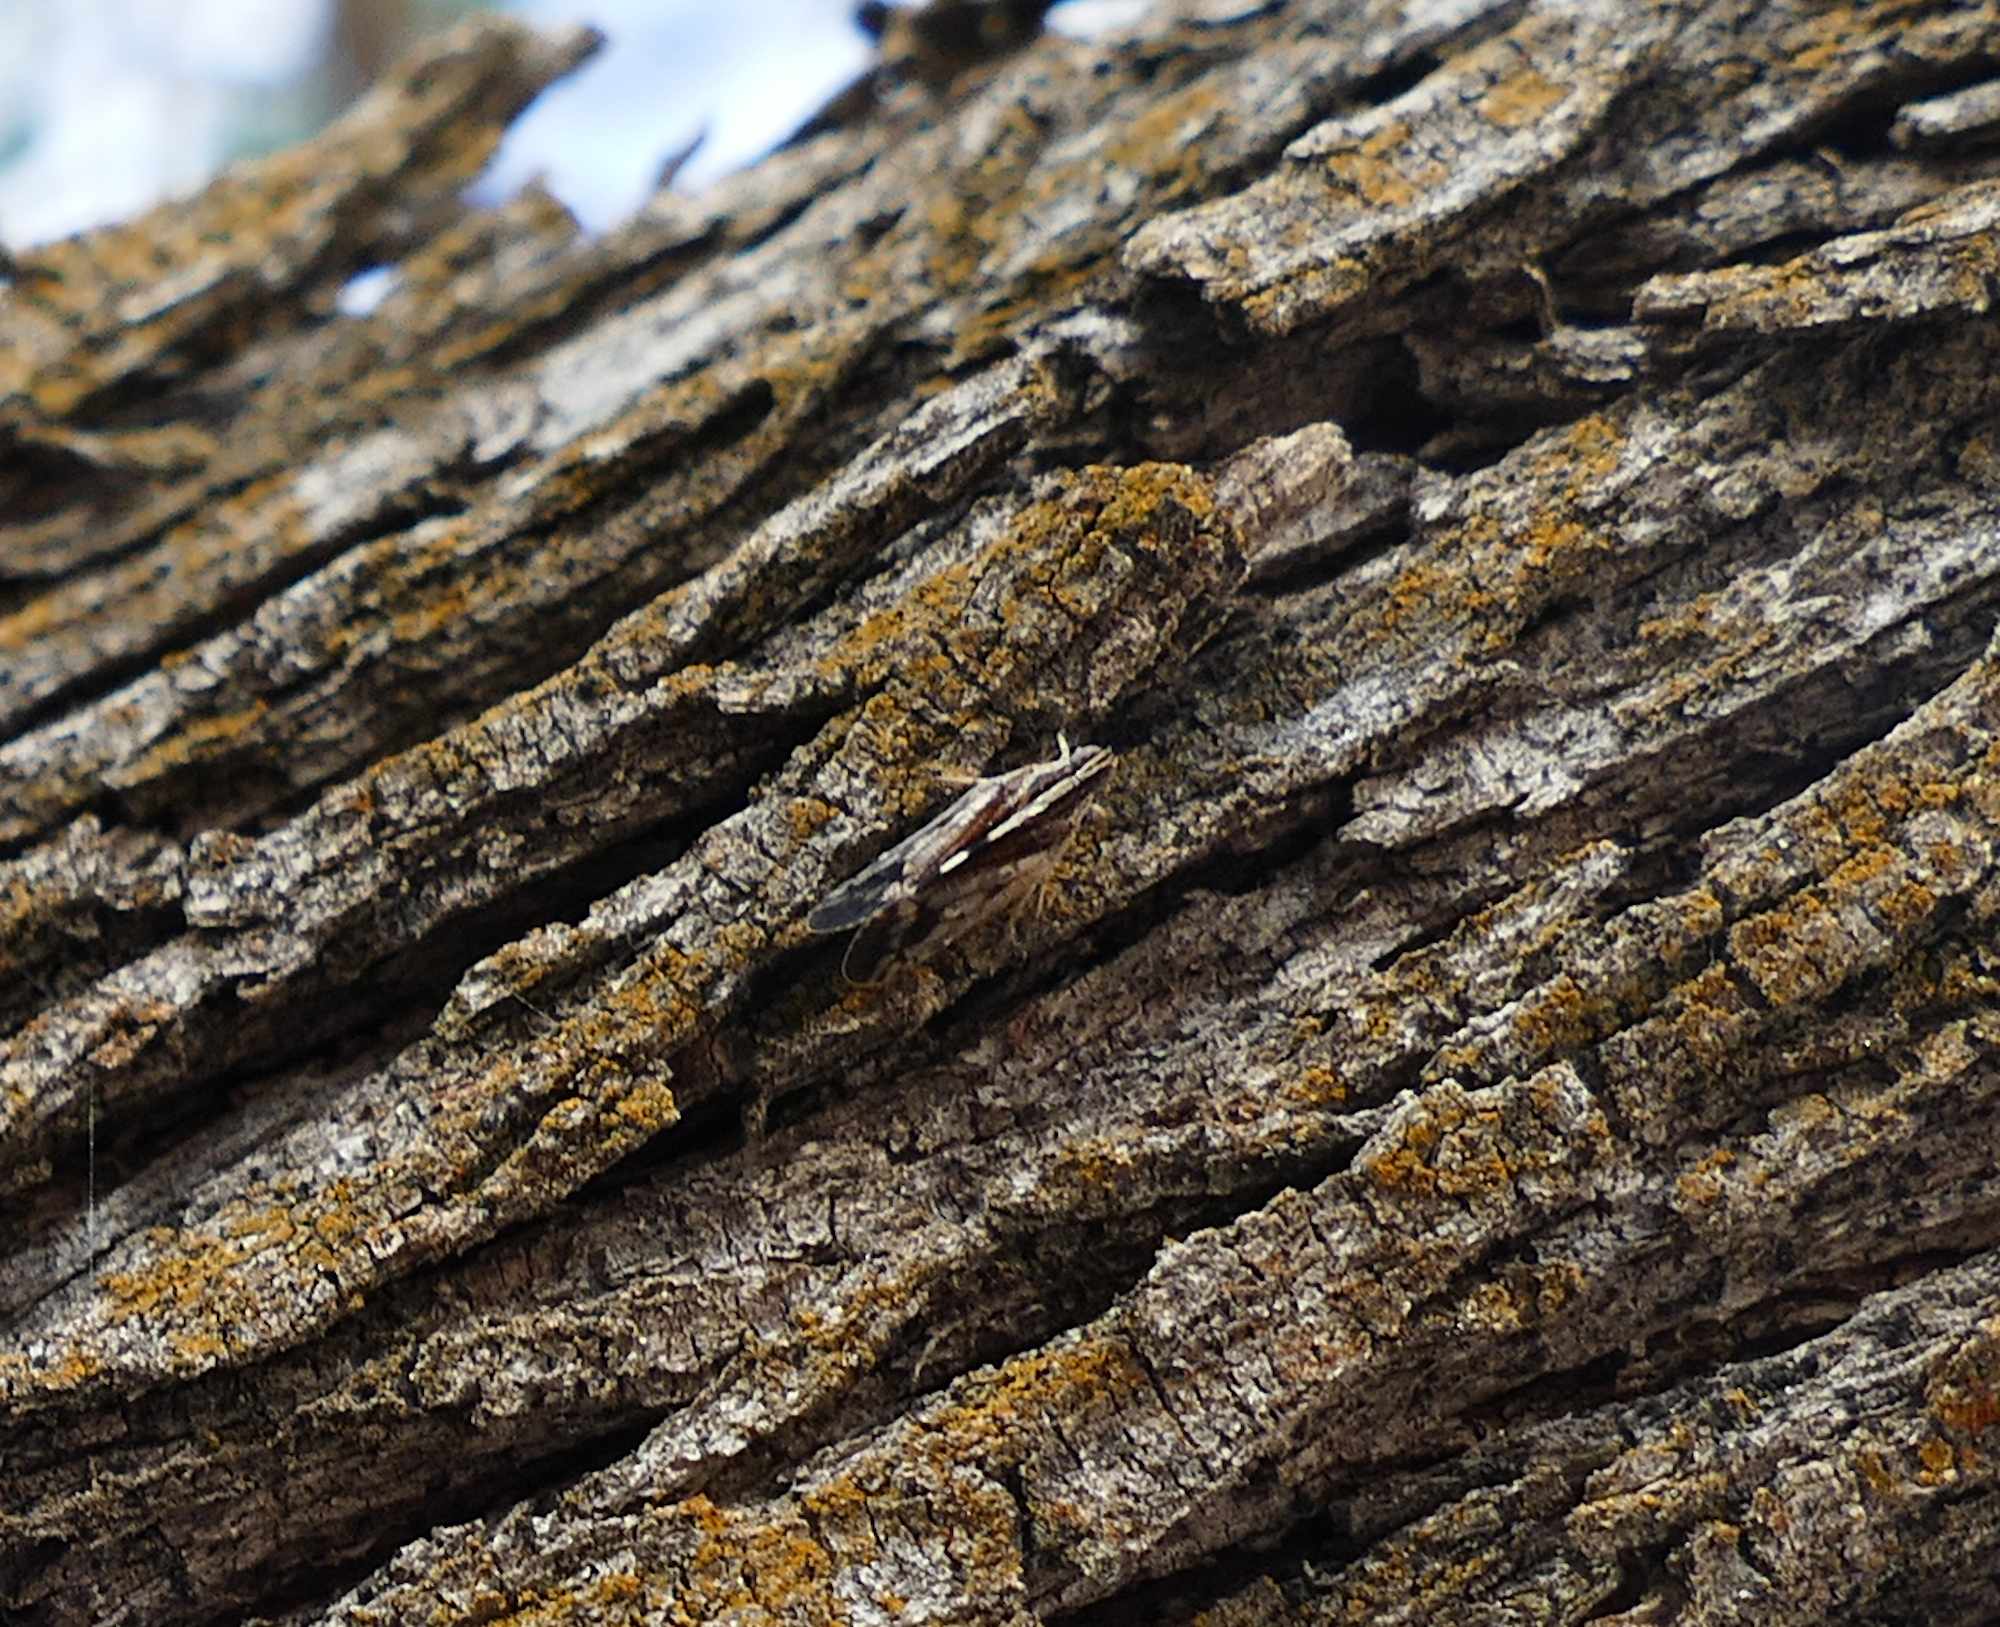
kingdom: Animalia
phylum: Arthropoda
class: Insecta
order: Hemiptera
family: Cixiidae
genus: Oecleus
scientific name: Oecleus perpictus
